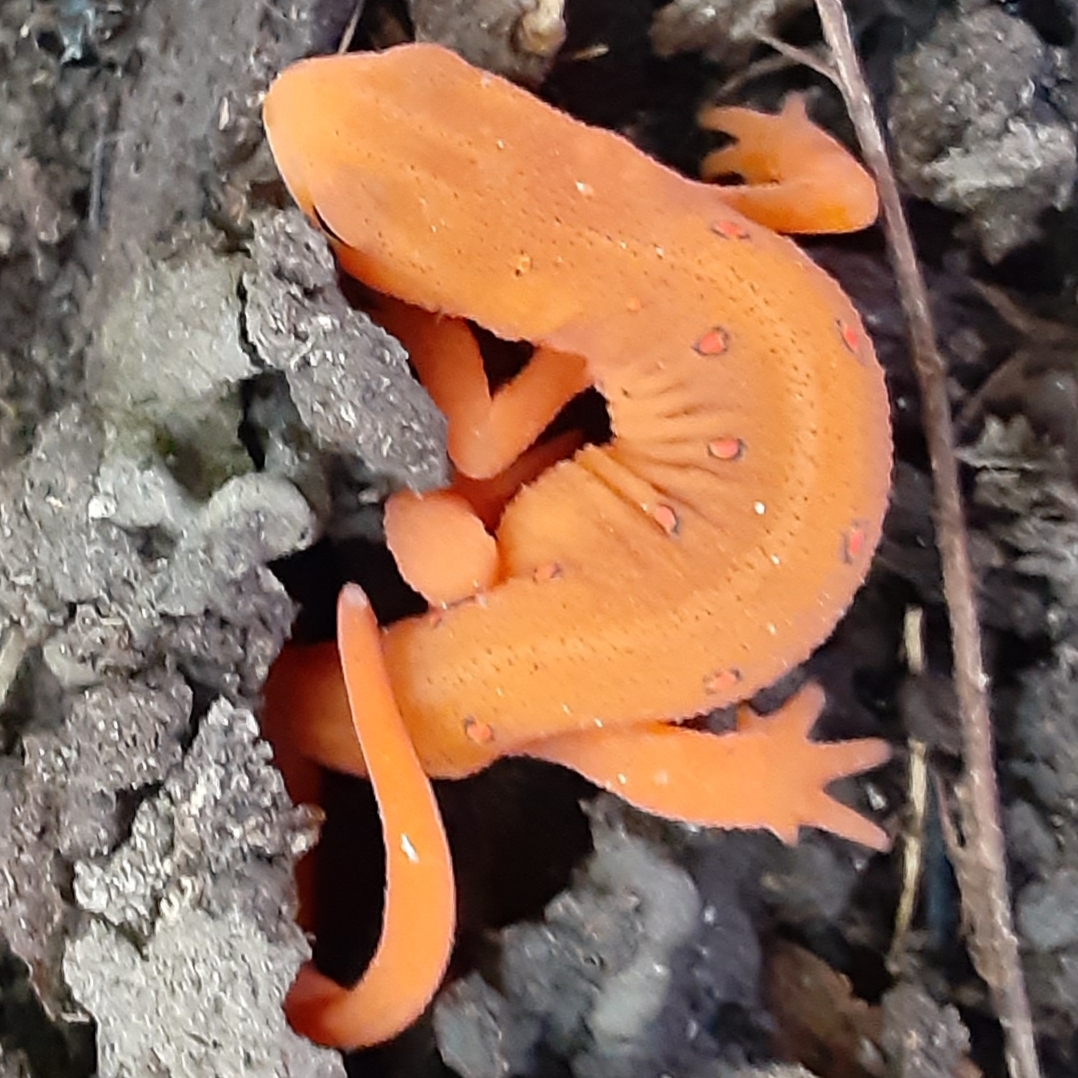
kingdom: Animalia
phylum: Chordata
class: Amphibia
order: Caudata
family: Salamandridae
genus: Notophthalmus
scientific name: Notophthalmus viridescens
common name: Eastern newt
